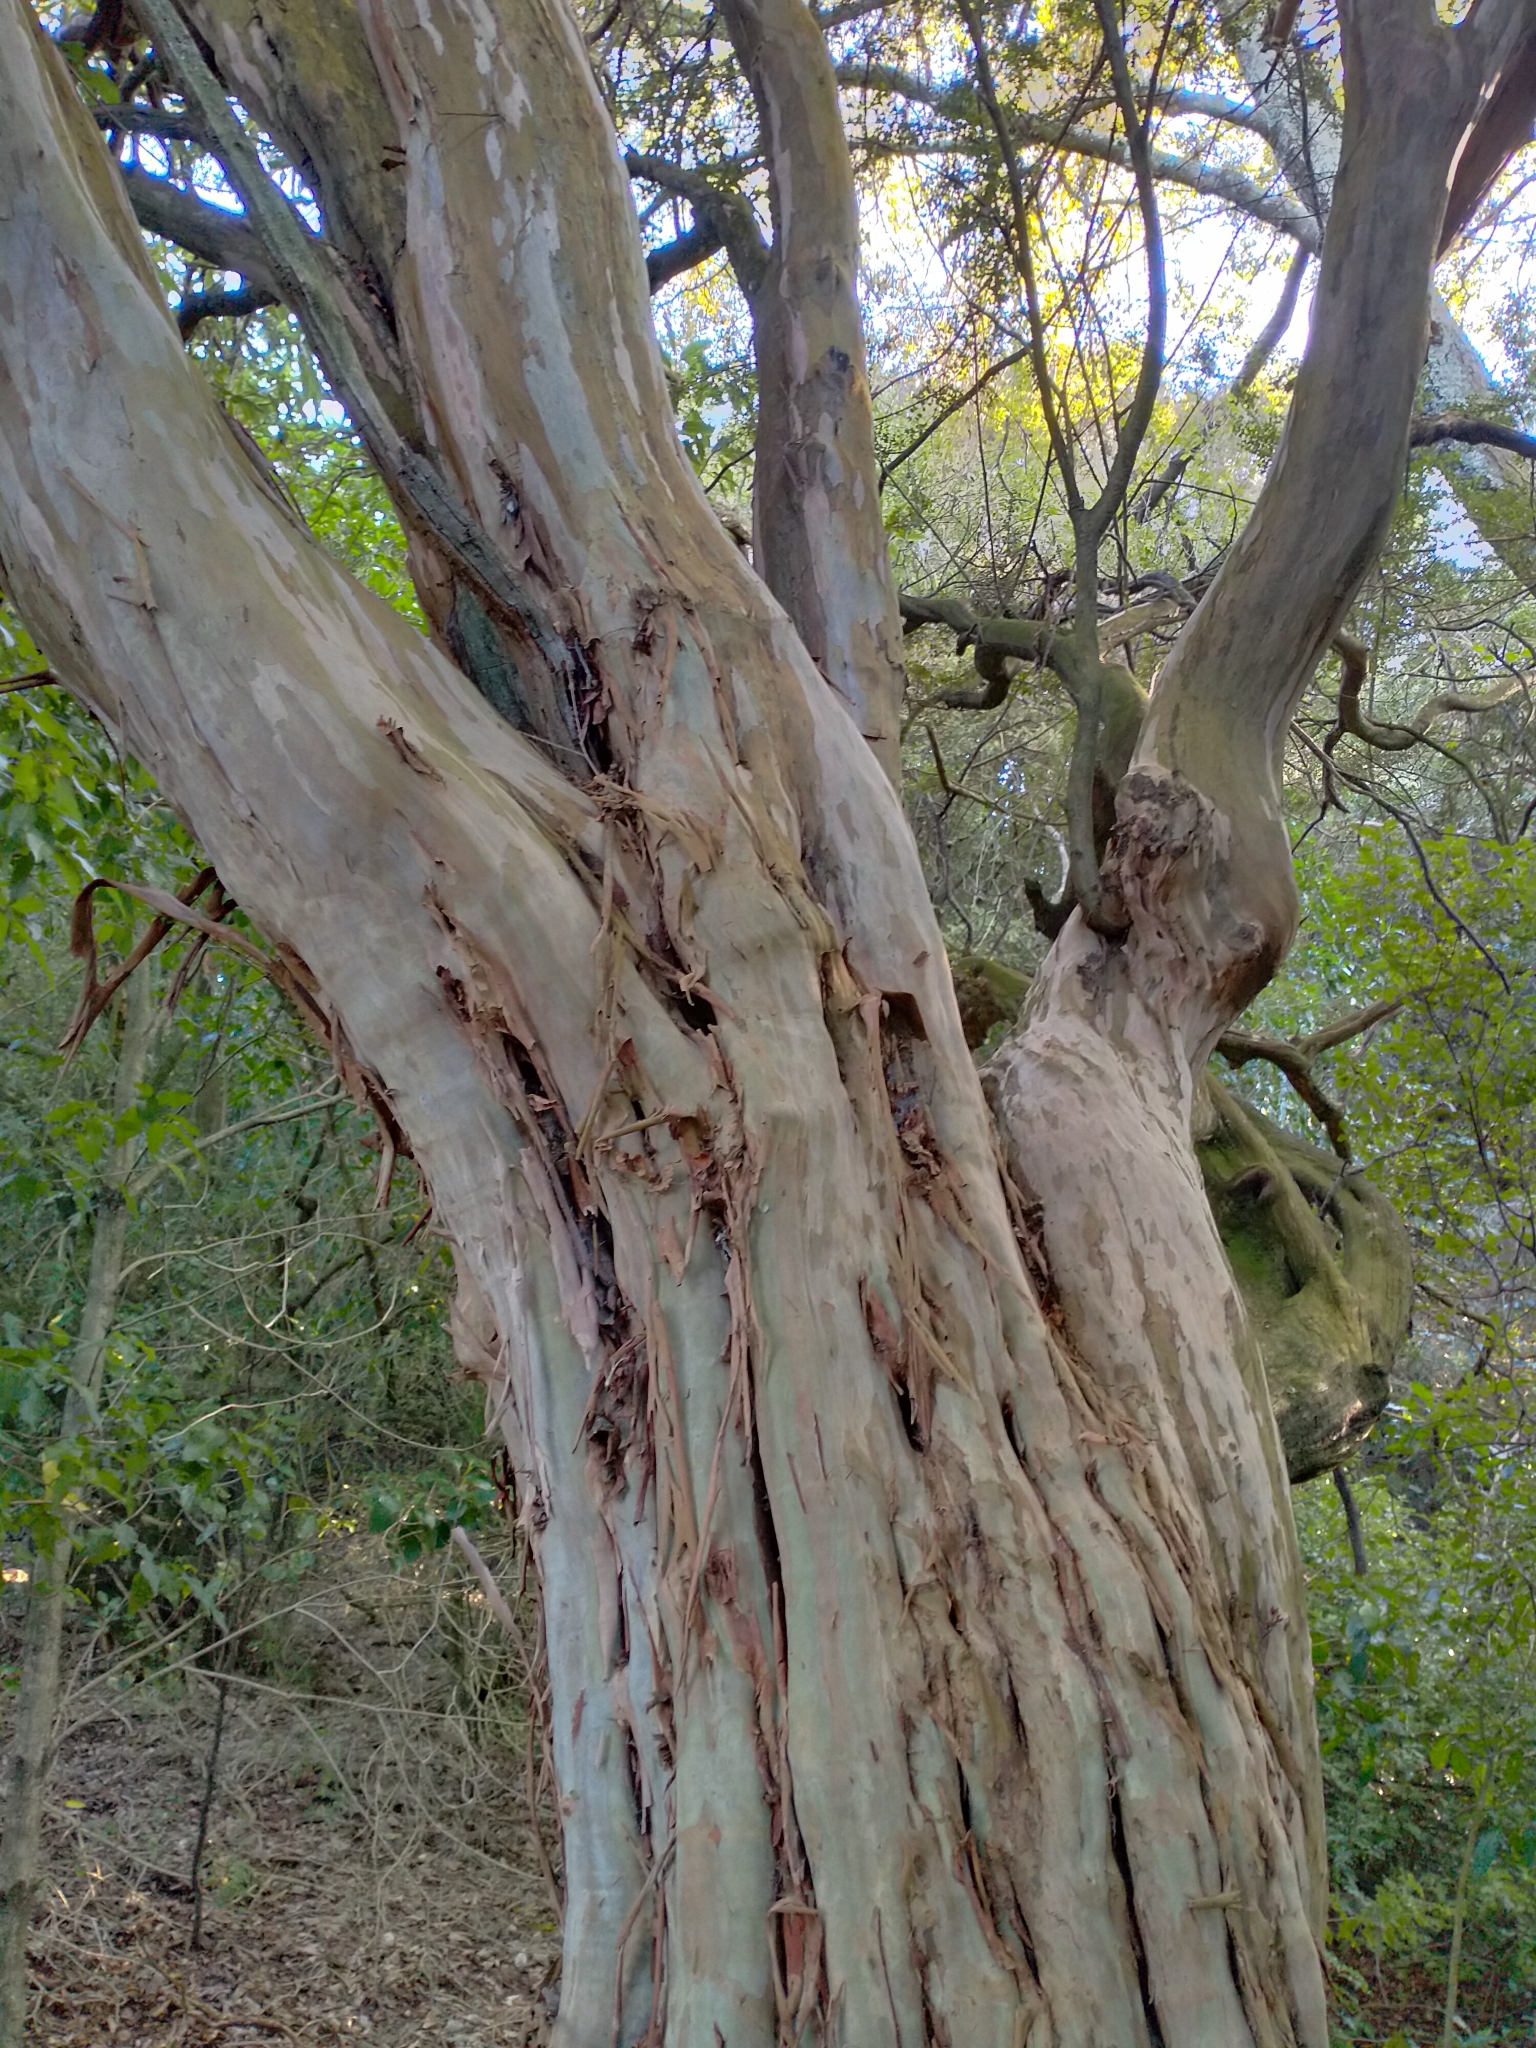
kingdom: Plantae
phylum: Tracheophyta
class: Magnoliopsida
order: Myrtales
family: Myrtaceae
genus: Lophomyrtus
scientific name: Lophomyrtus obcordata
